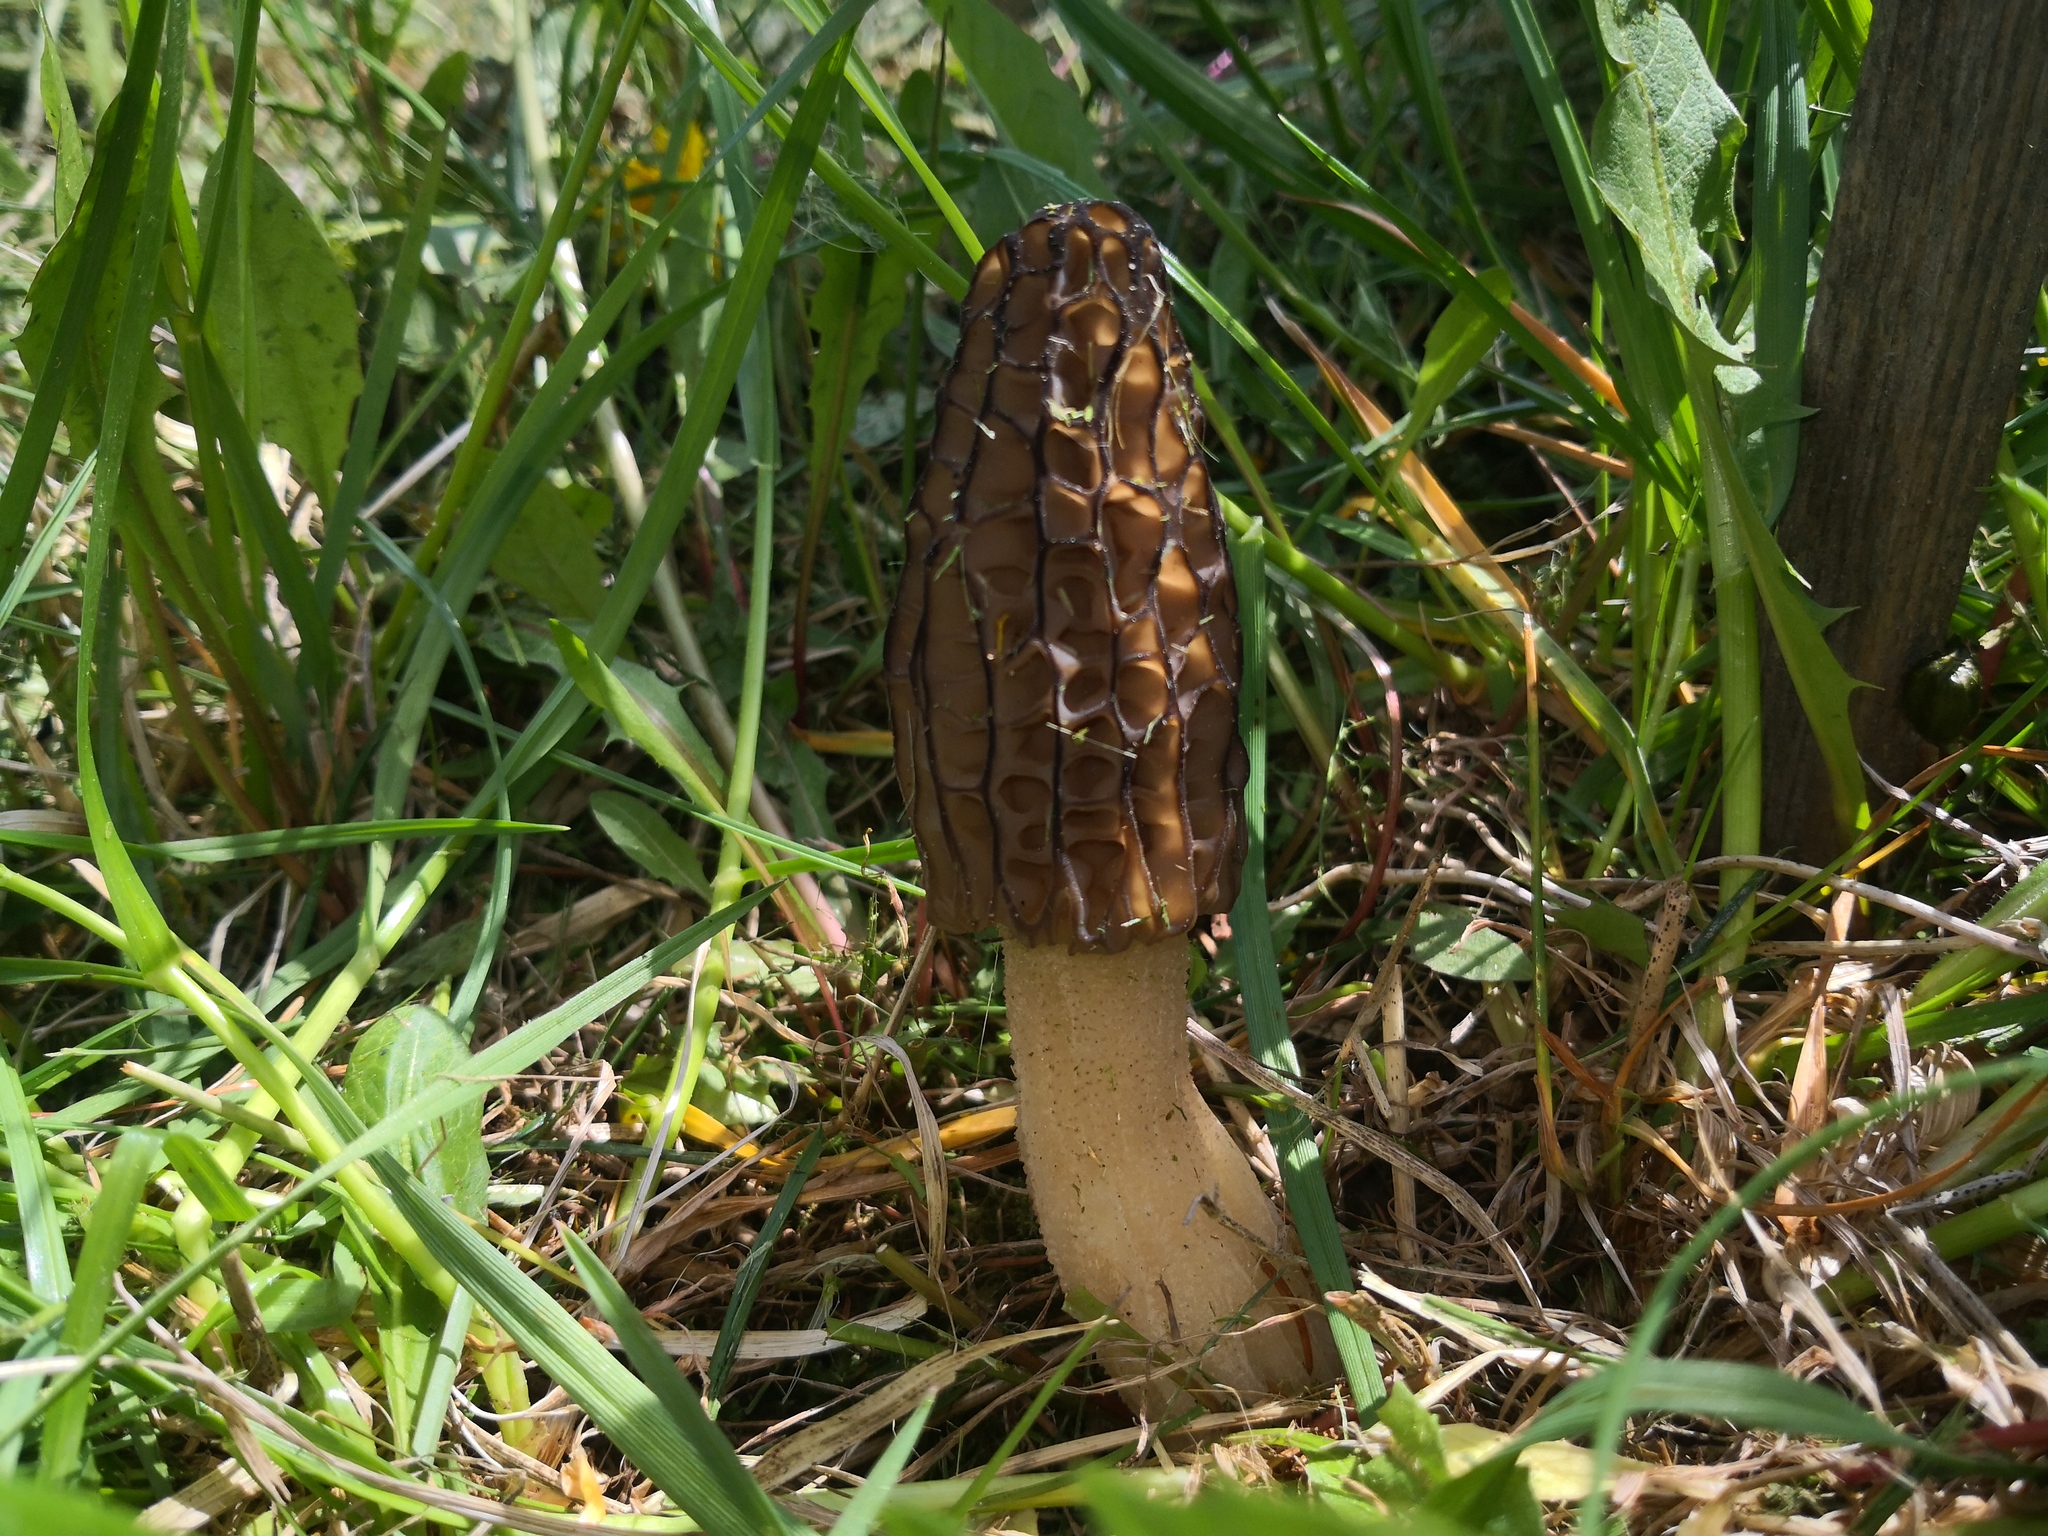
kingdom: Fungi
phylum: Ascomycota
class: Pezizomycetes
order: Pezizales
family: Morchellaceae
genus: Morchella
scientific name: Morchella
